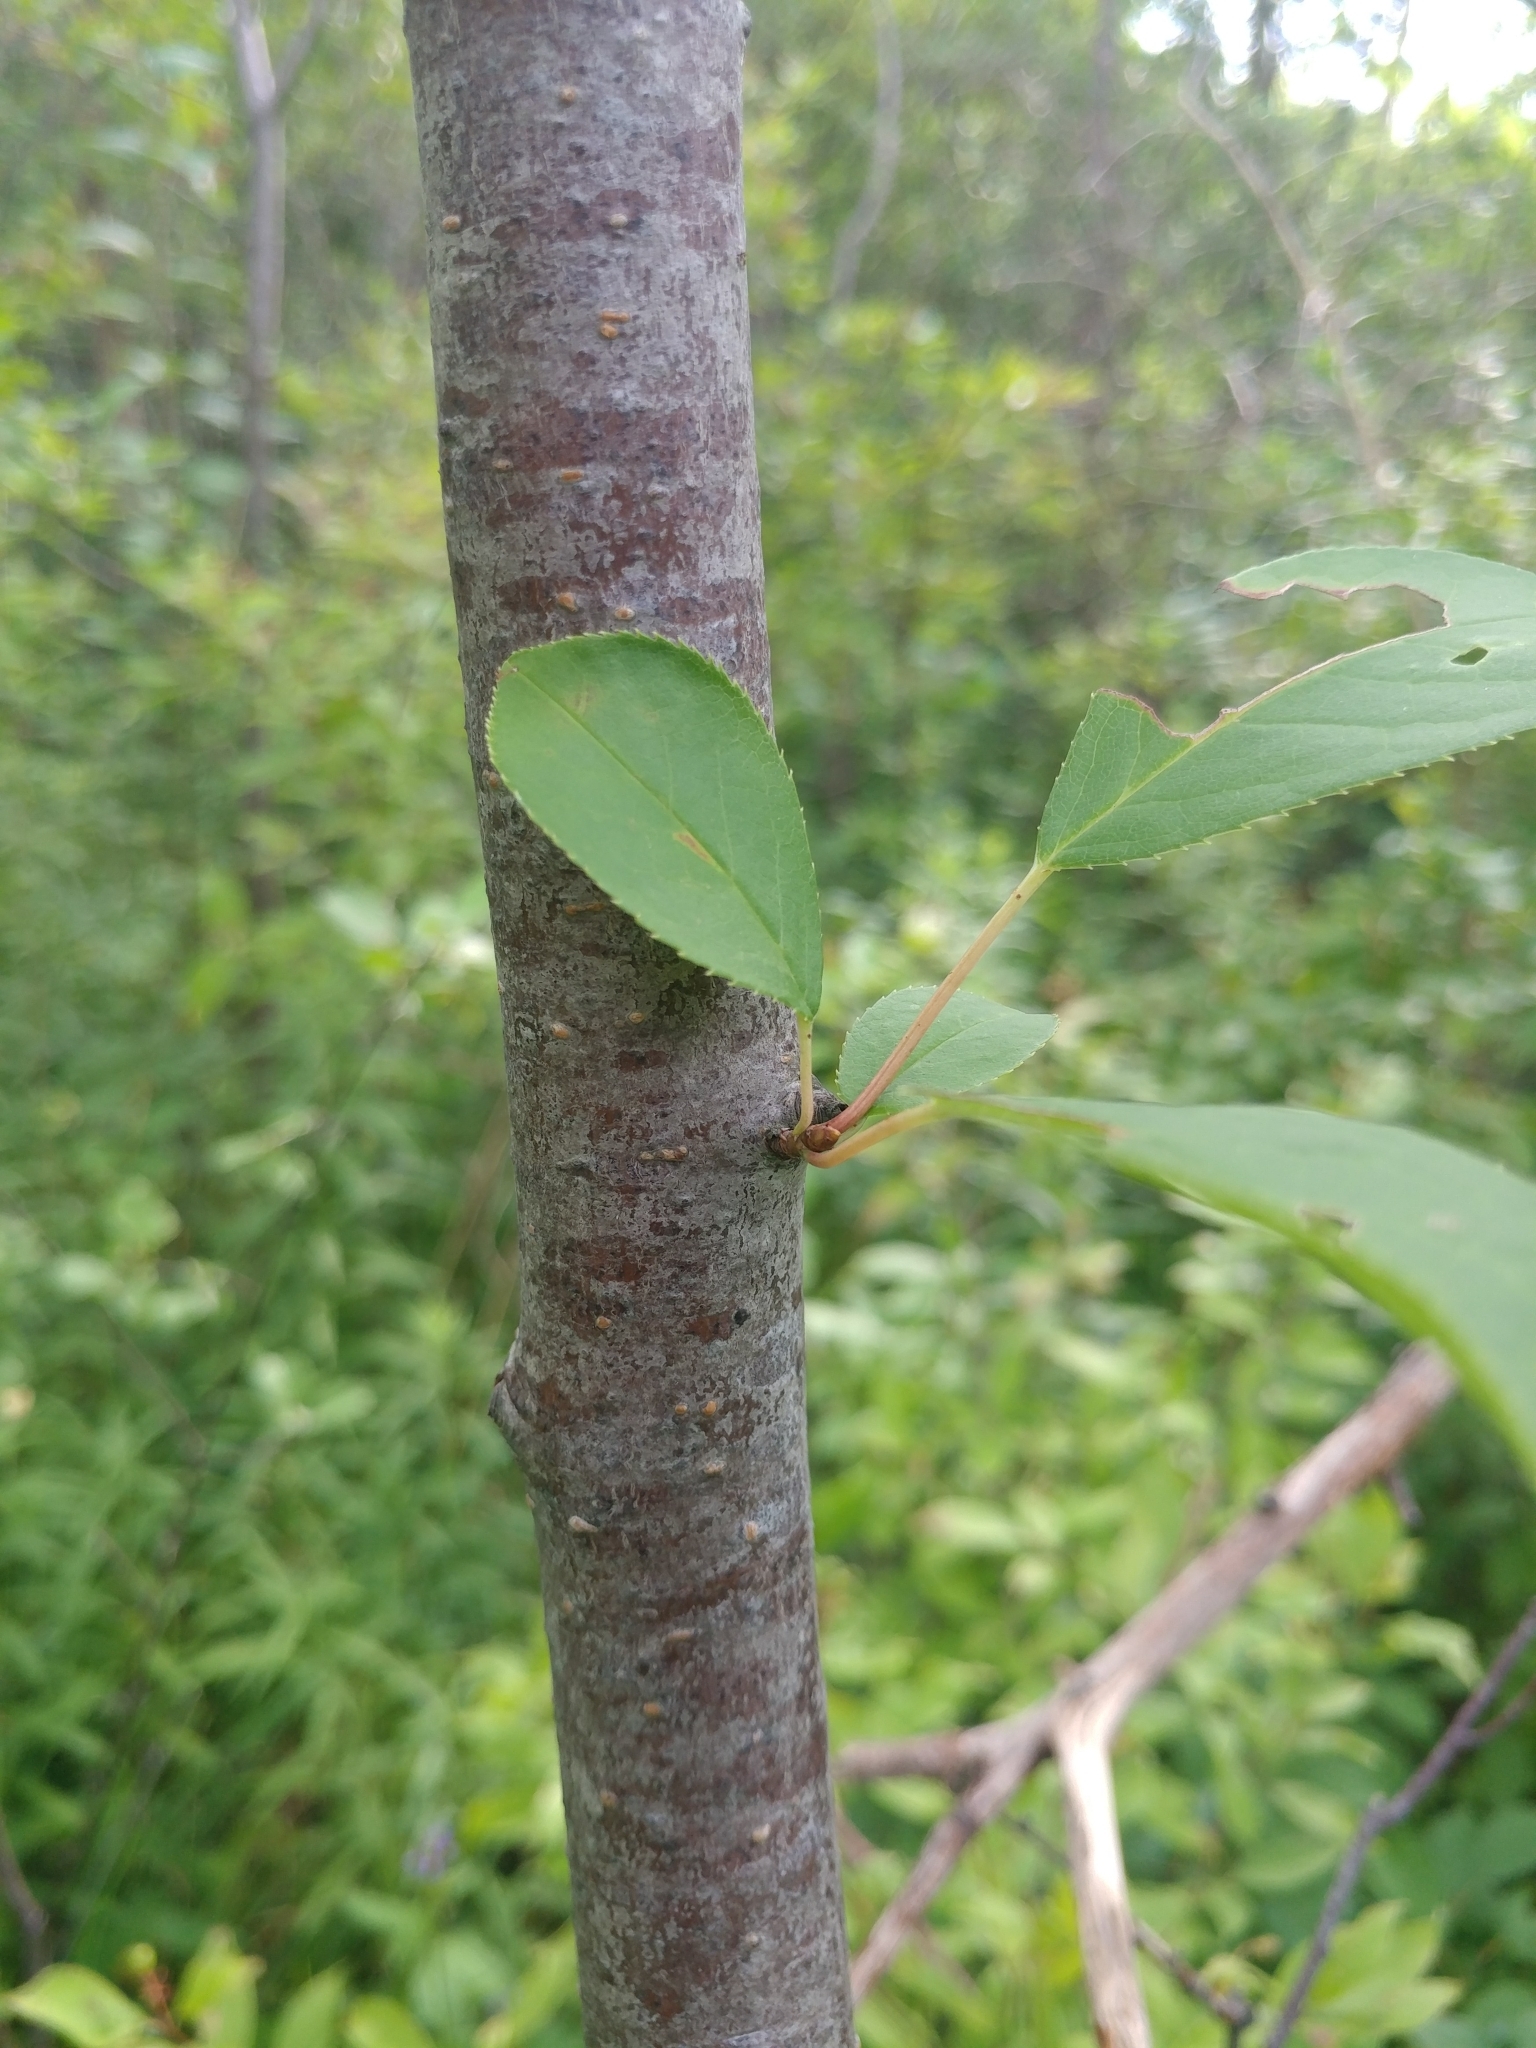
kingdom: Plantae
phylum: Tracheophyta
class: Magnoliopsida
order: Rosales
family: Rosaceae
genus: Prunus
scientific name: Prunus virginiana
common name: Chokecherry
